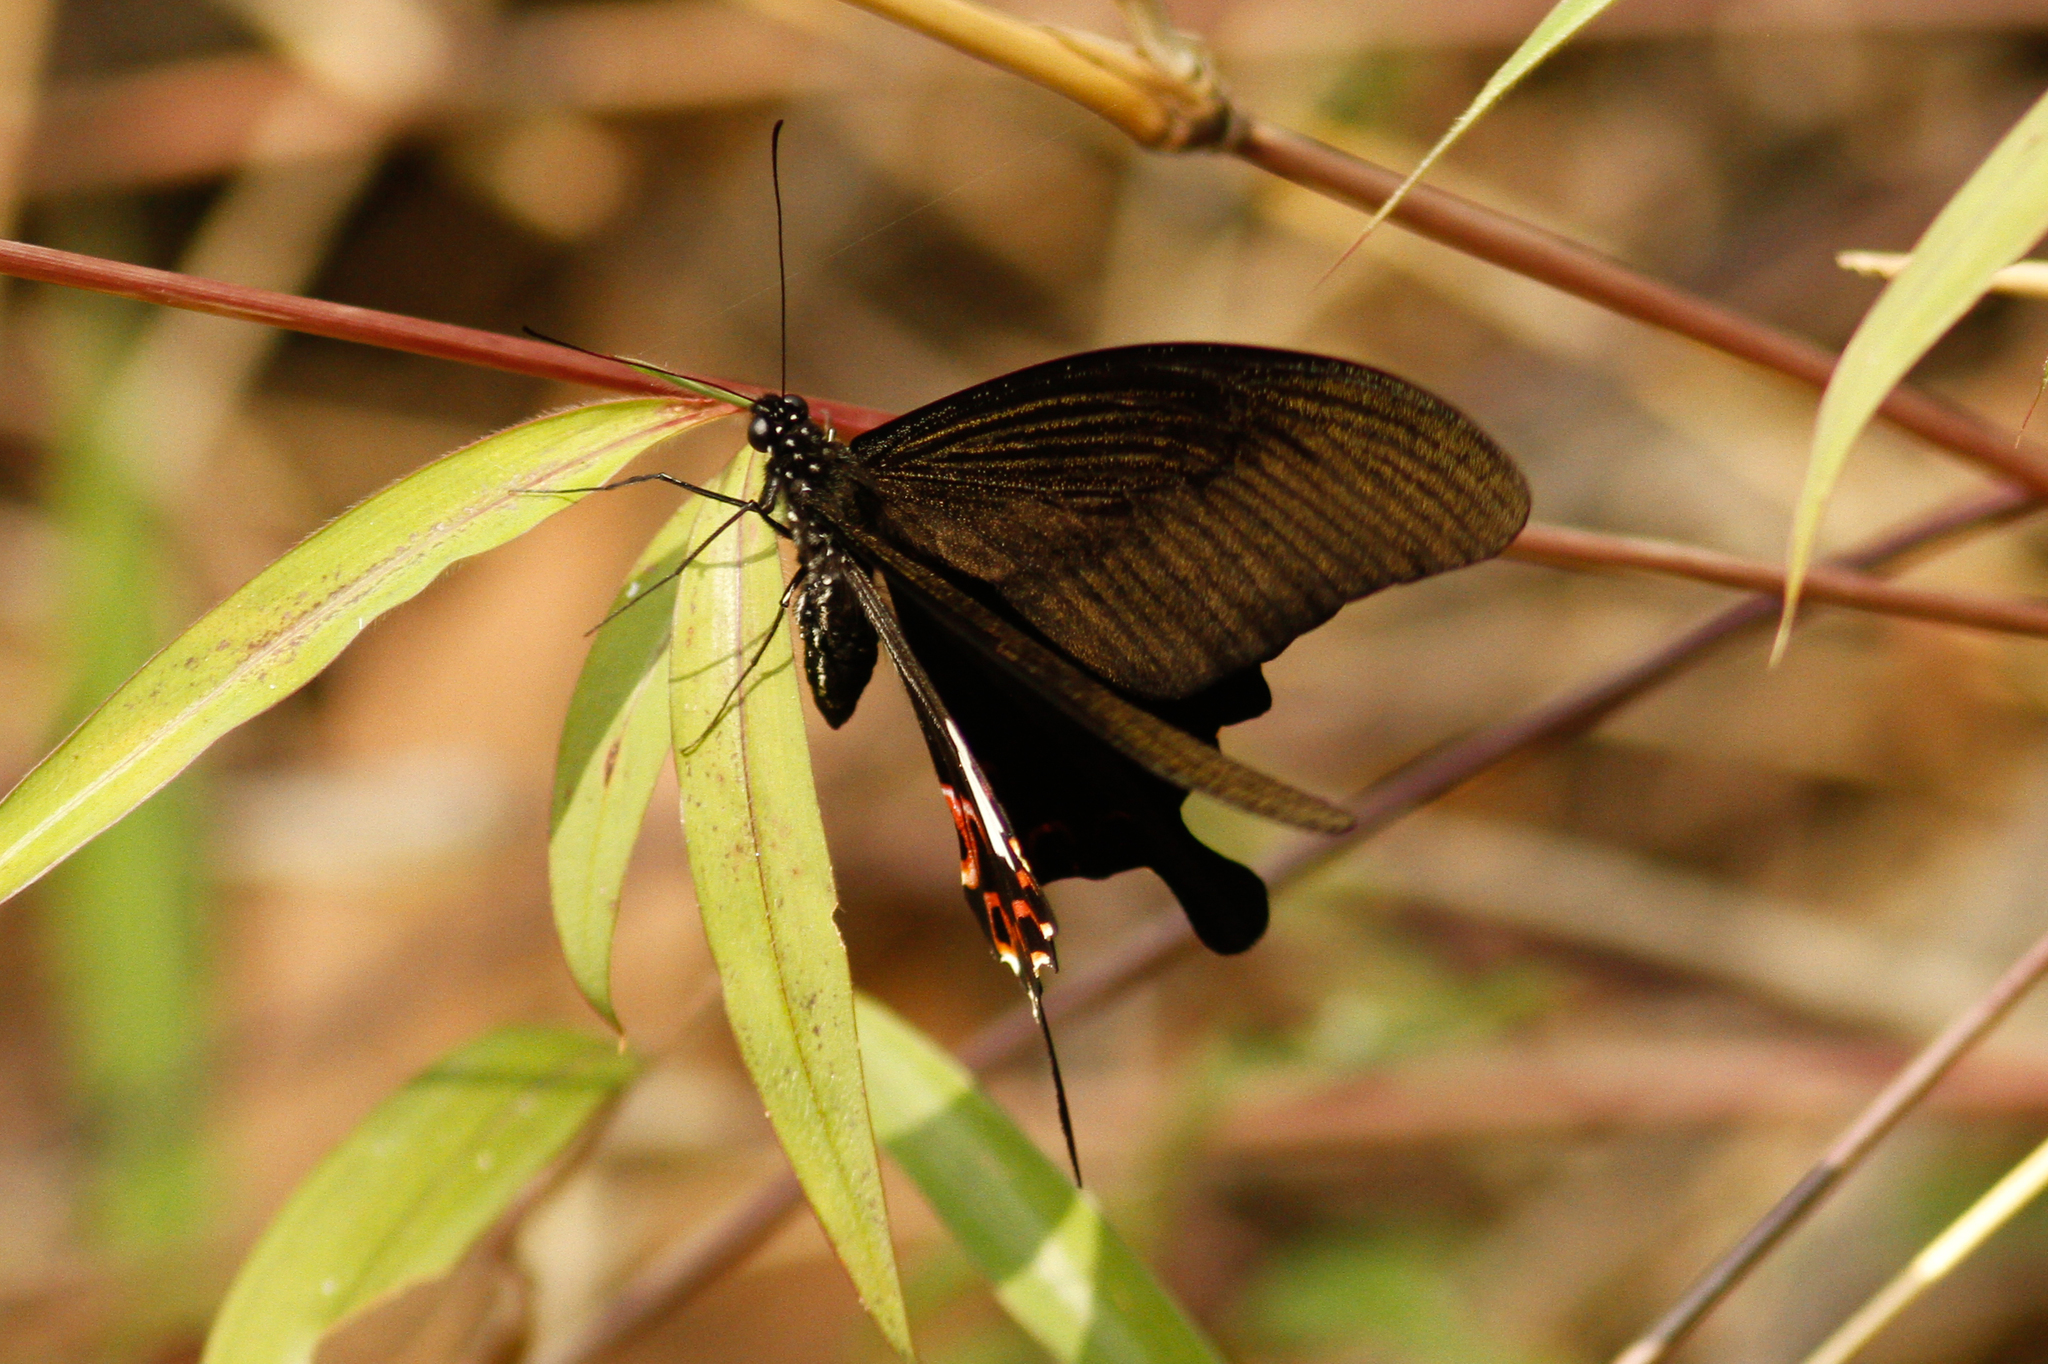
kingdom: Animalia
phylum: Arthropoda
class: Insecta
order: Lepidoptera
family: Papilionidae
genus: Papilio
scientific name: Papilio helenus
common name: Red helen
